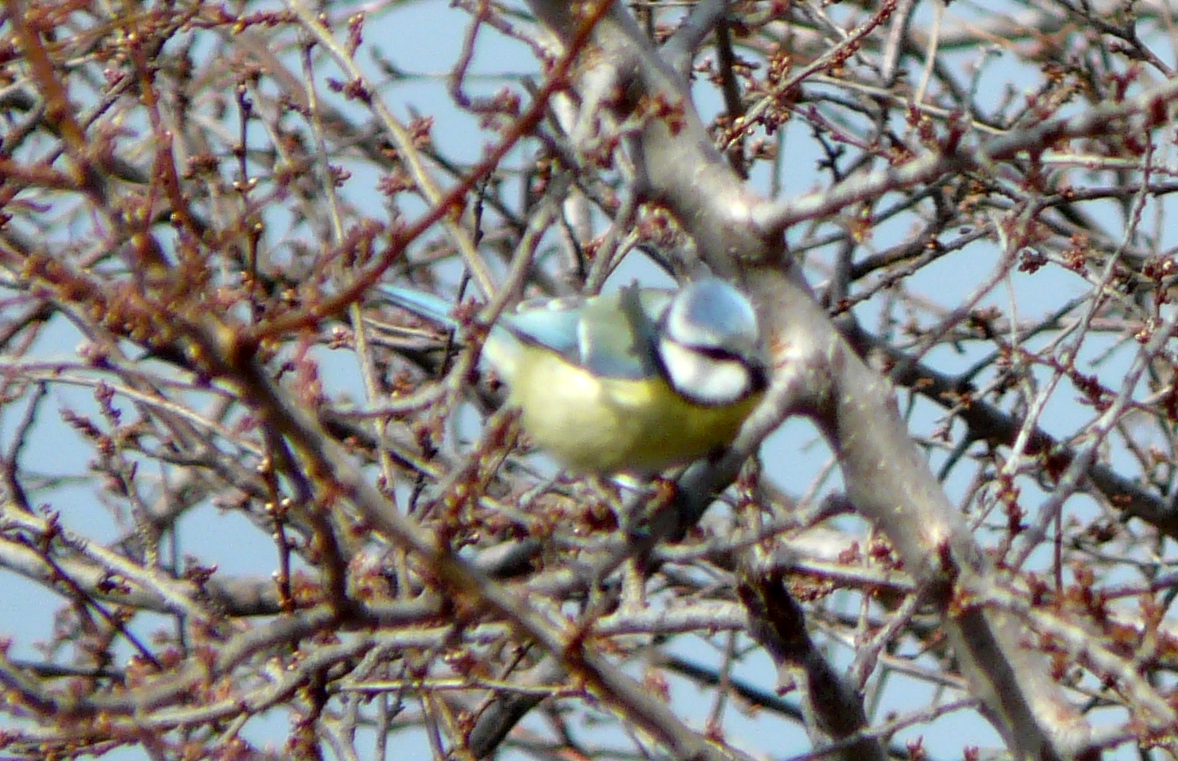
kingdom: Animalia
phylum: Chordata
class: Aves
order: Passeriformes
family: Paridae
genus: Cyanistes
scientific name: Cyanistes caeruleus
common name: Eurasian blue tit
